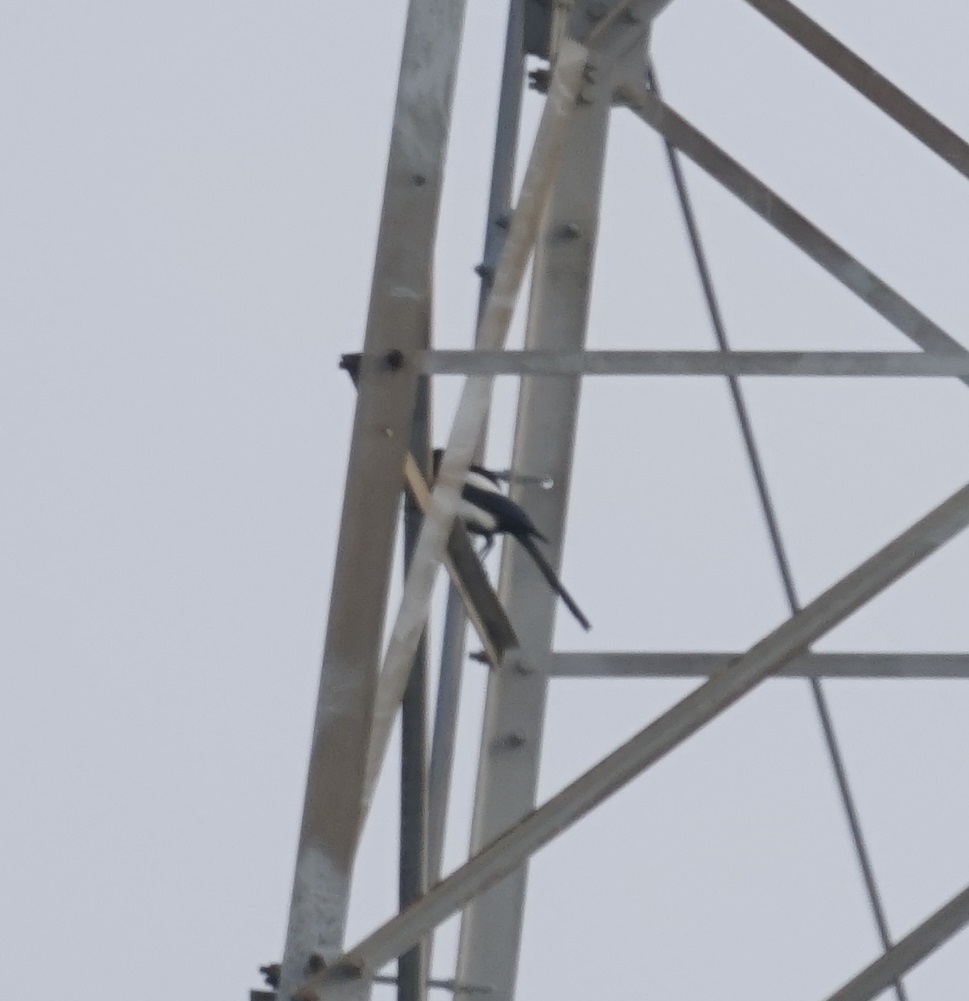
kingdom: Animalia
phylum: Chordata
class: Aves
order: Passeriformes
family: Corvidae
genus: Pica
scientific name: Pica serica
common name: Oriental magpie
